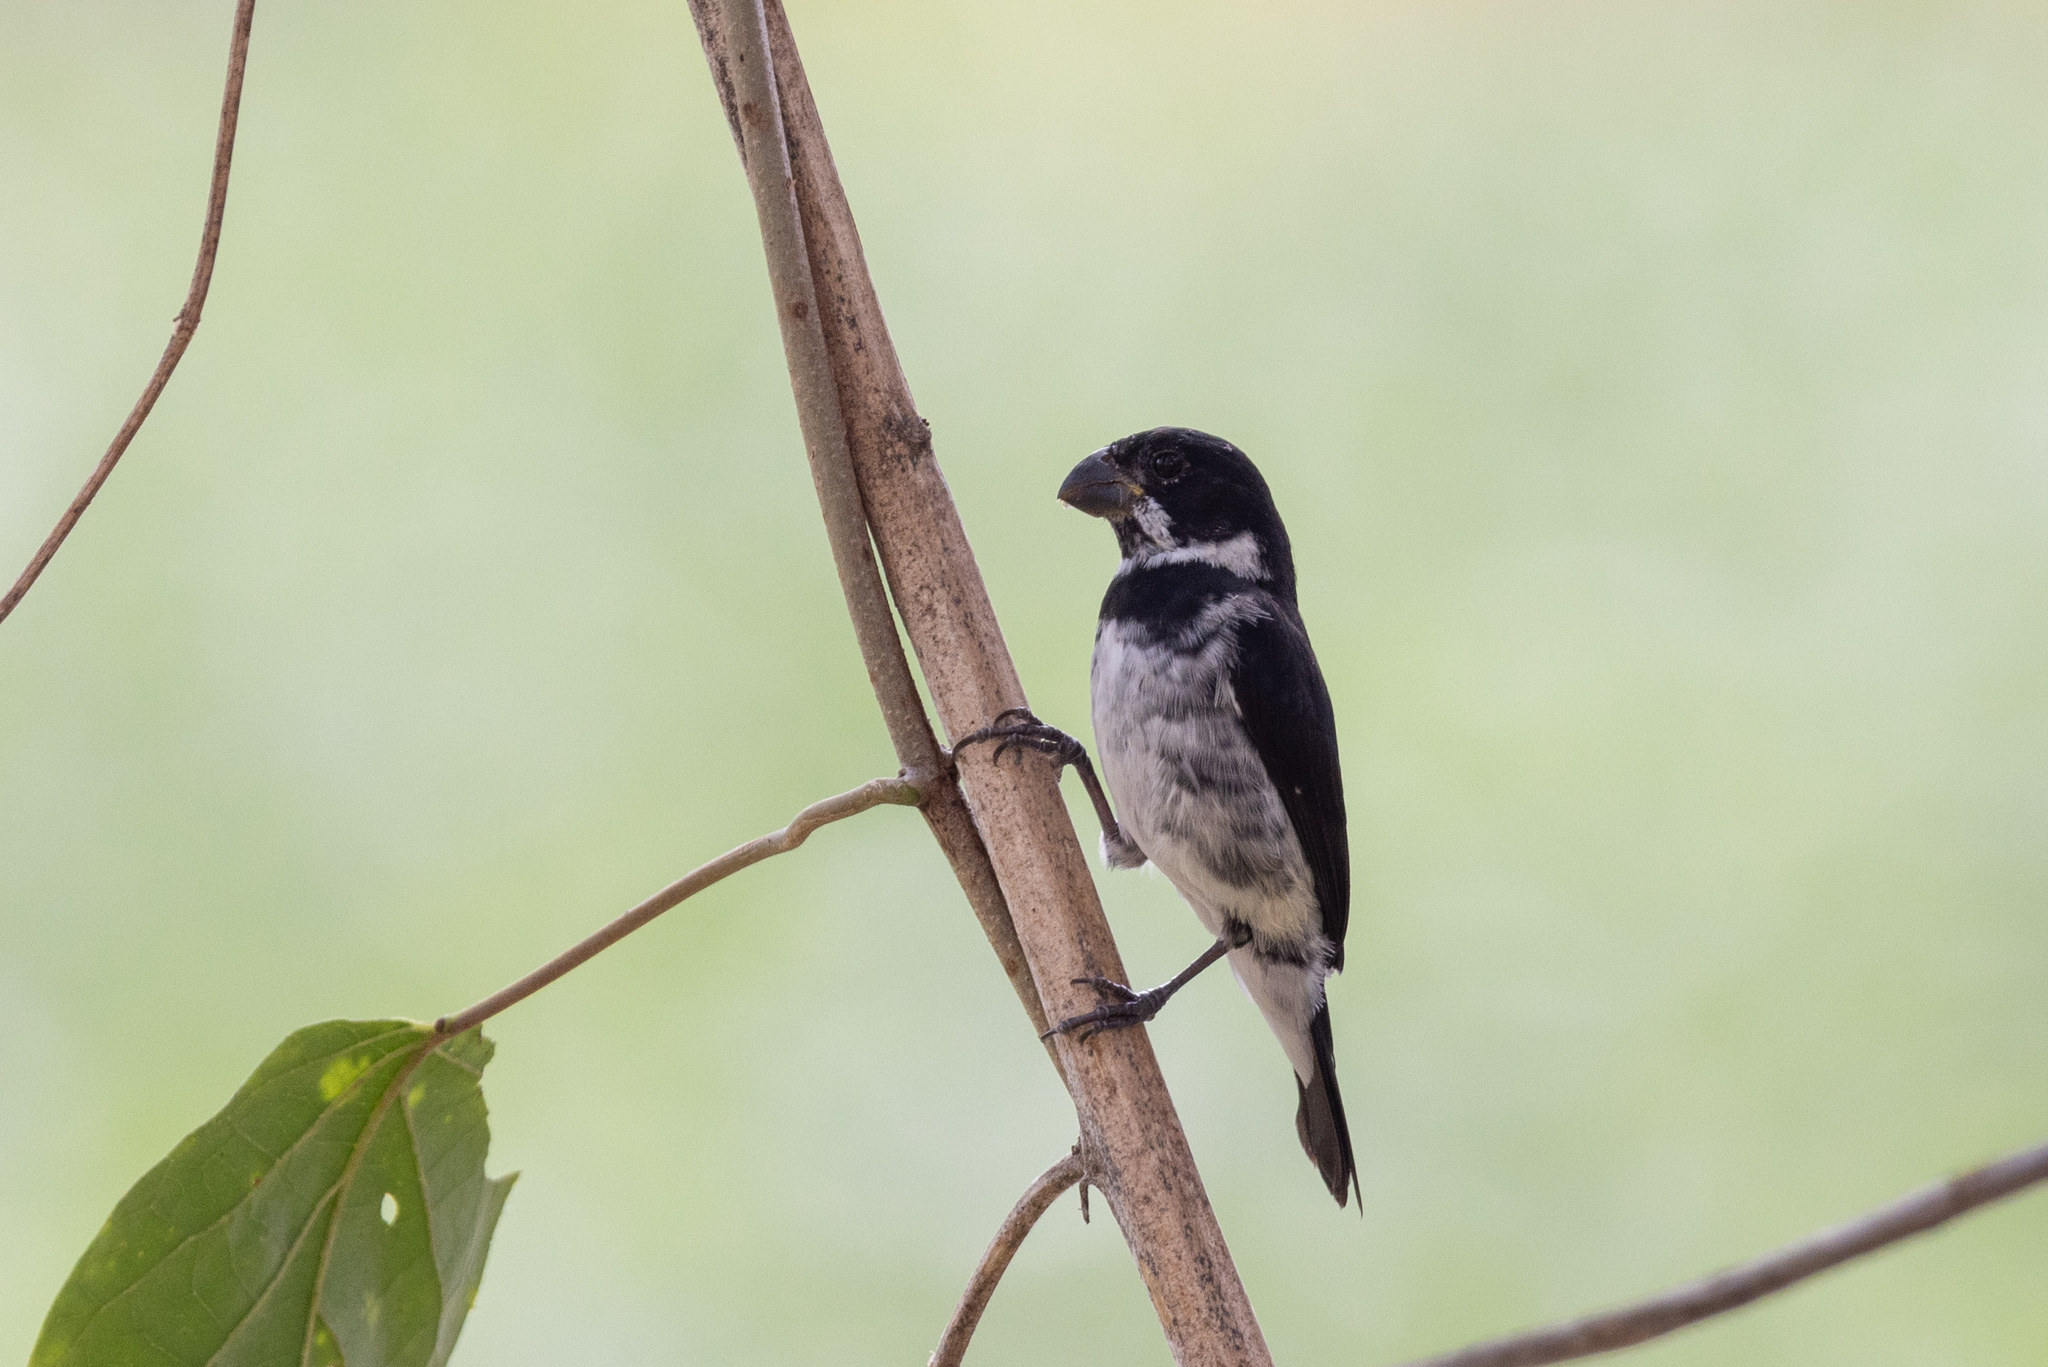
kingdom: Animalia
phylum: Chordata
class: Aves
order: Passeriformes
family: Thraupidae
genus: Sporophila
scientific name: Sporophila corvina
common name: Variable seedeater
